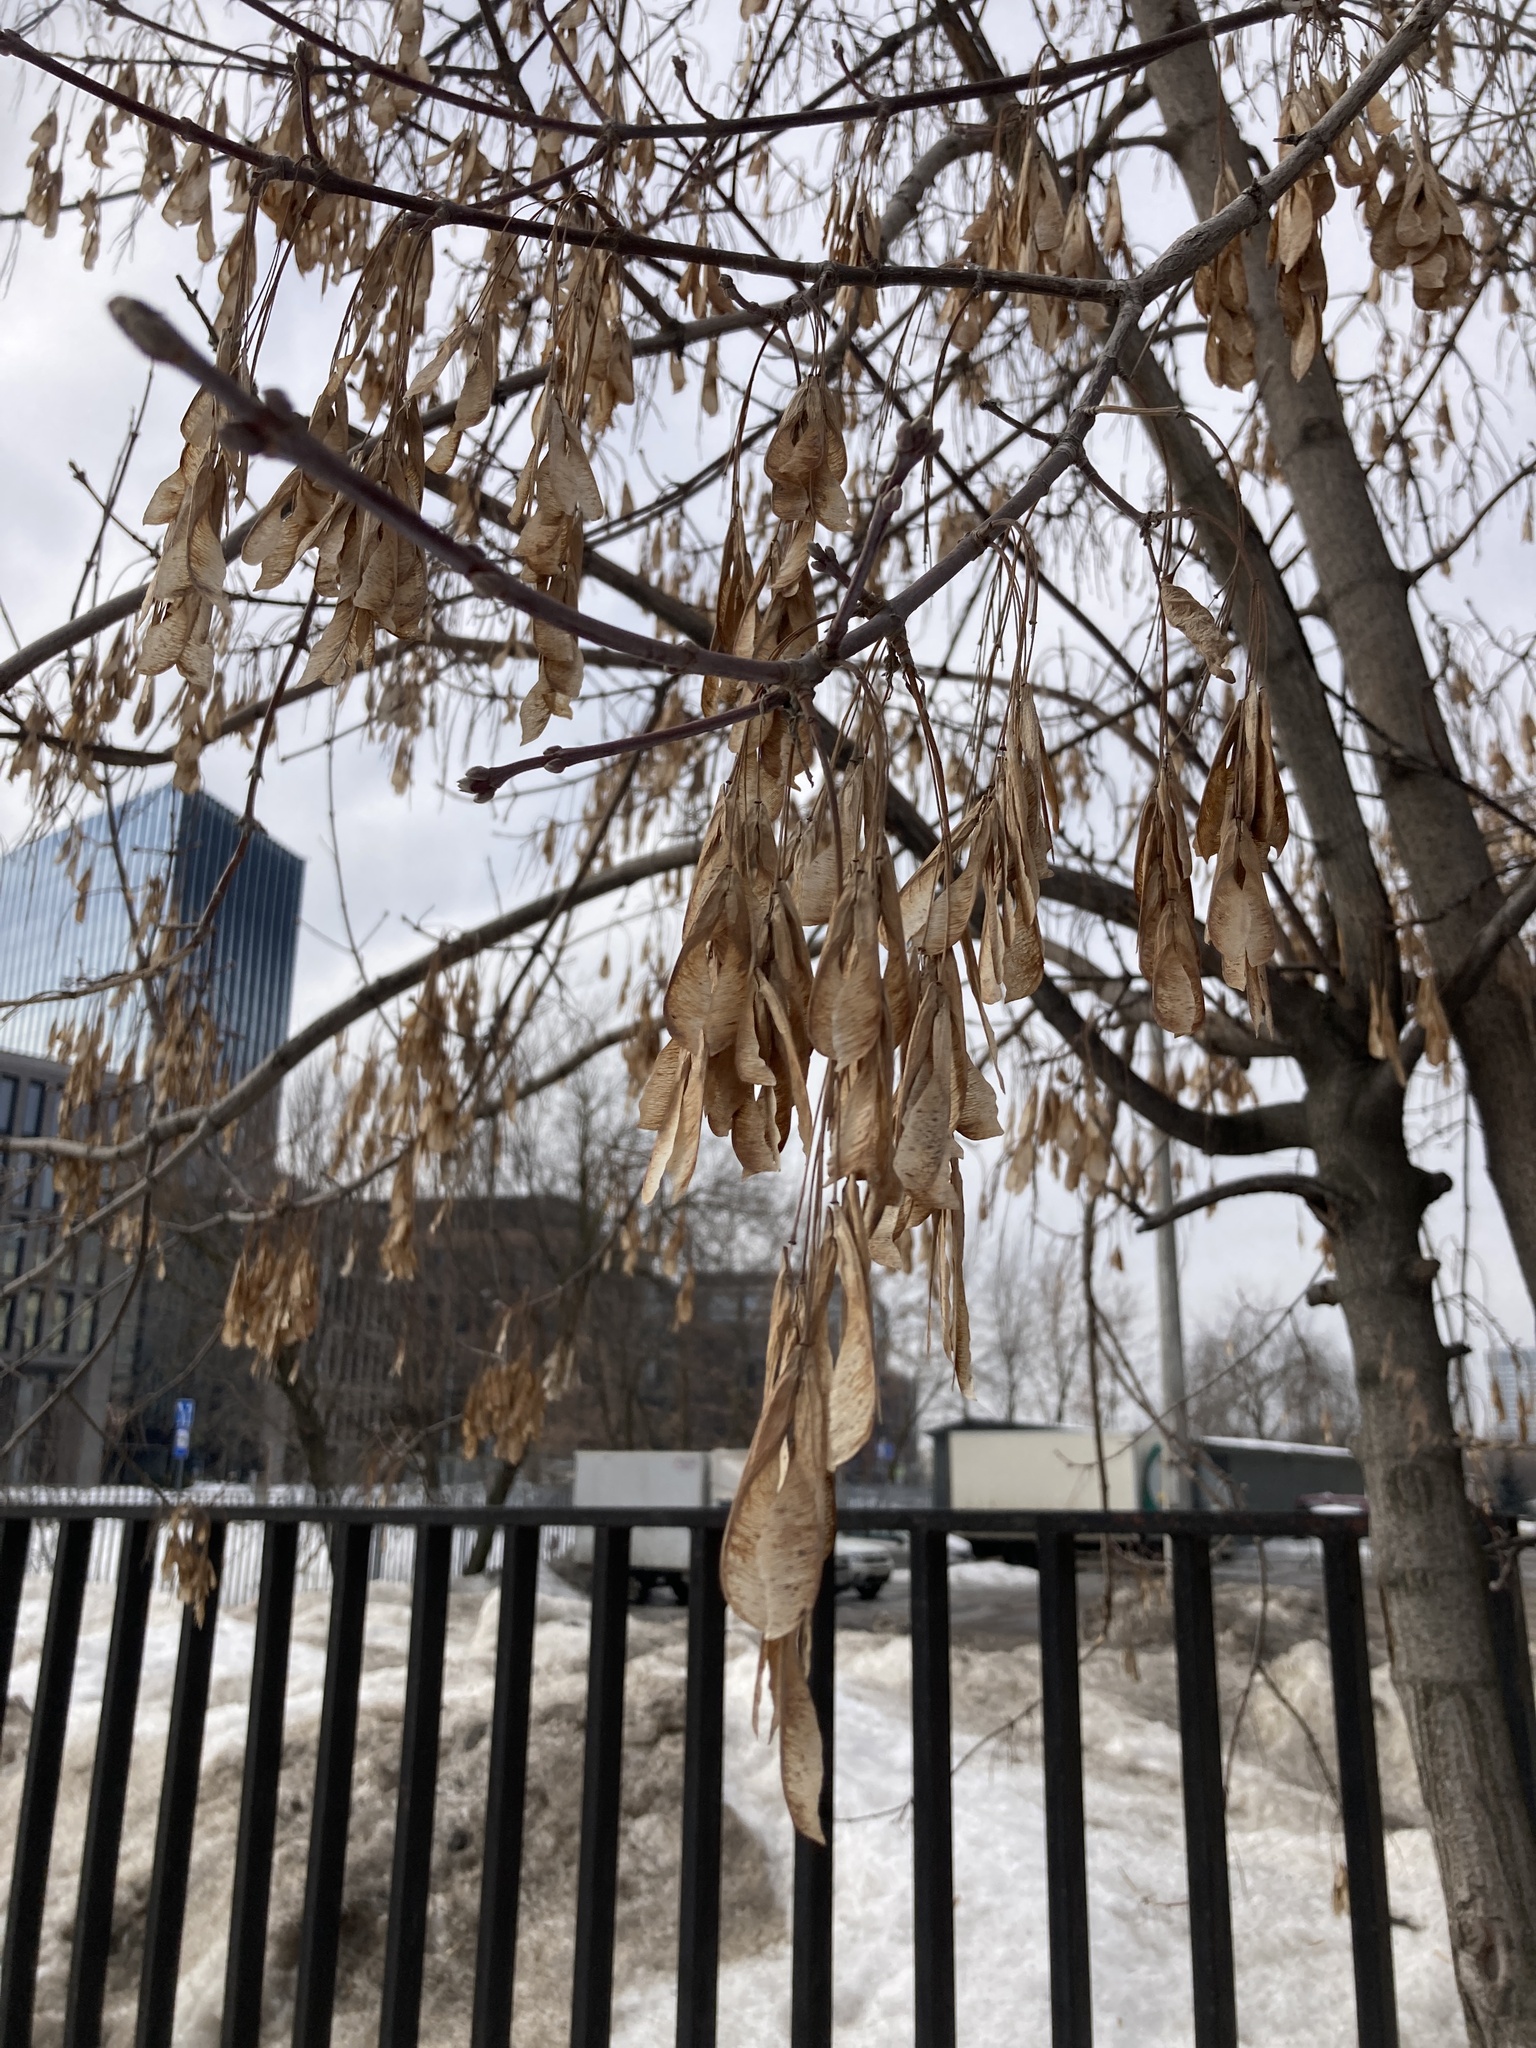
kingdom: Plantae
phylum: Tracheophyta
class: Magnoliopsida
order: Sapindales
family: Sapindaceae
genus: Acer
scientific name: Acer negundo
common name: Ashleaf maple
